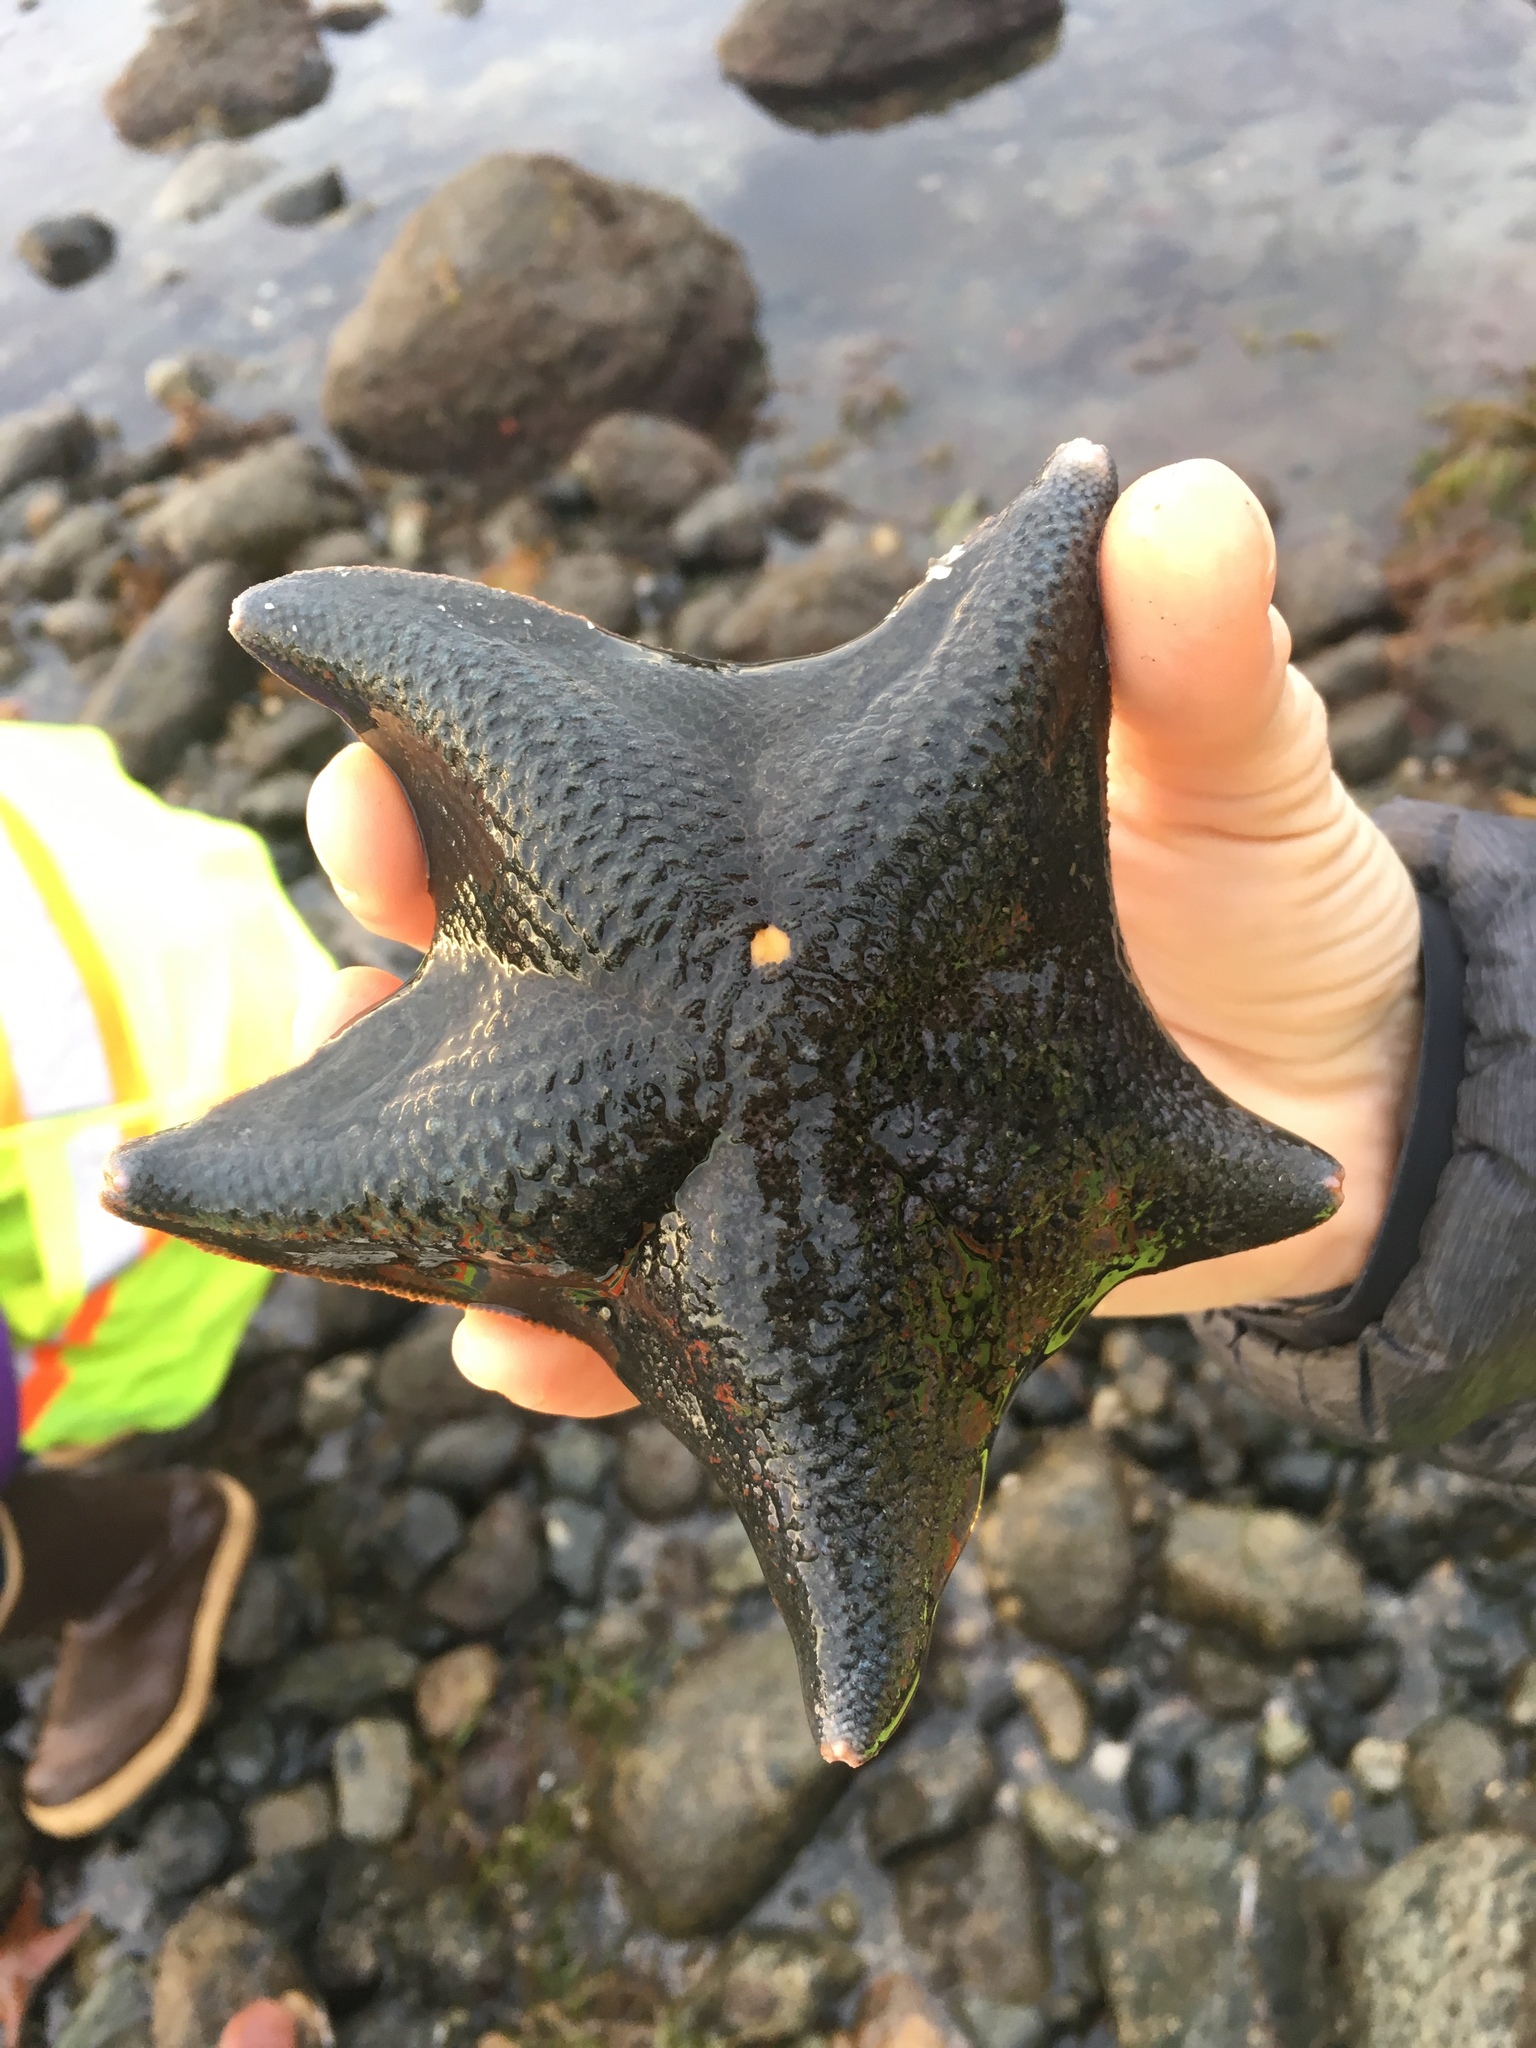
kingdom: Animalia
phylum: Echinodermata
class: Asteroidea
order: Valvatida
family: Asterinidae
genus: Patiria
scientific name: Patiria miniata
